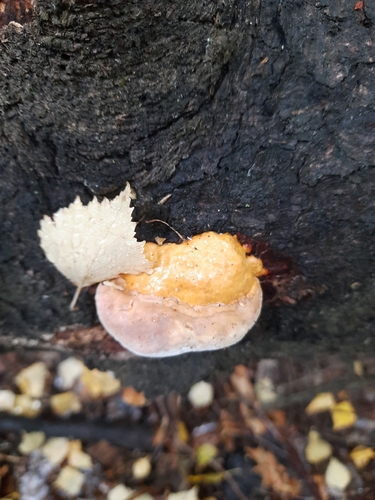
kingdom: Fungi
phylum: Basidiomycota
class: Agaricomycetes
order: Polyporales
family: Fomitopsidaceae
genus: Fomitopsis
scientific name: Fomitopsis pinicola
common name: Red-belted bracket
